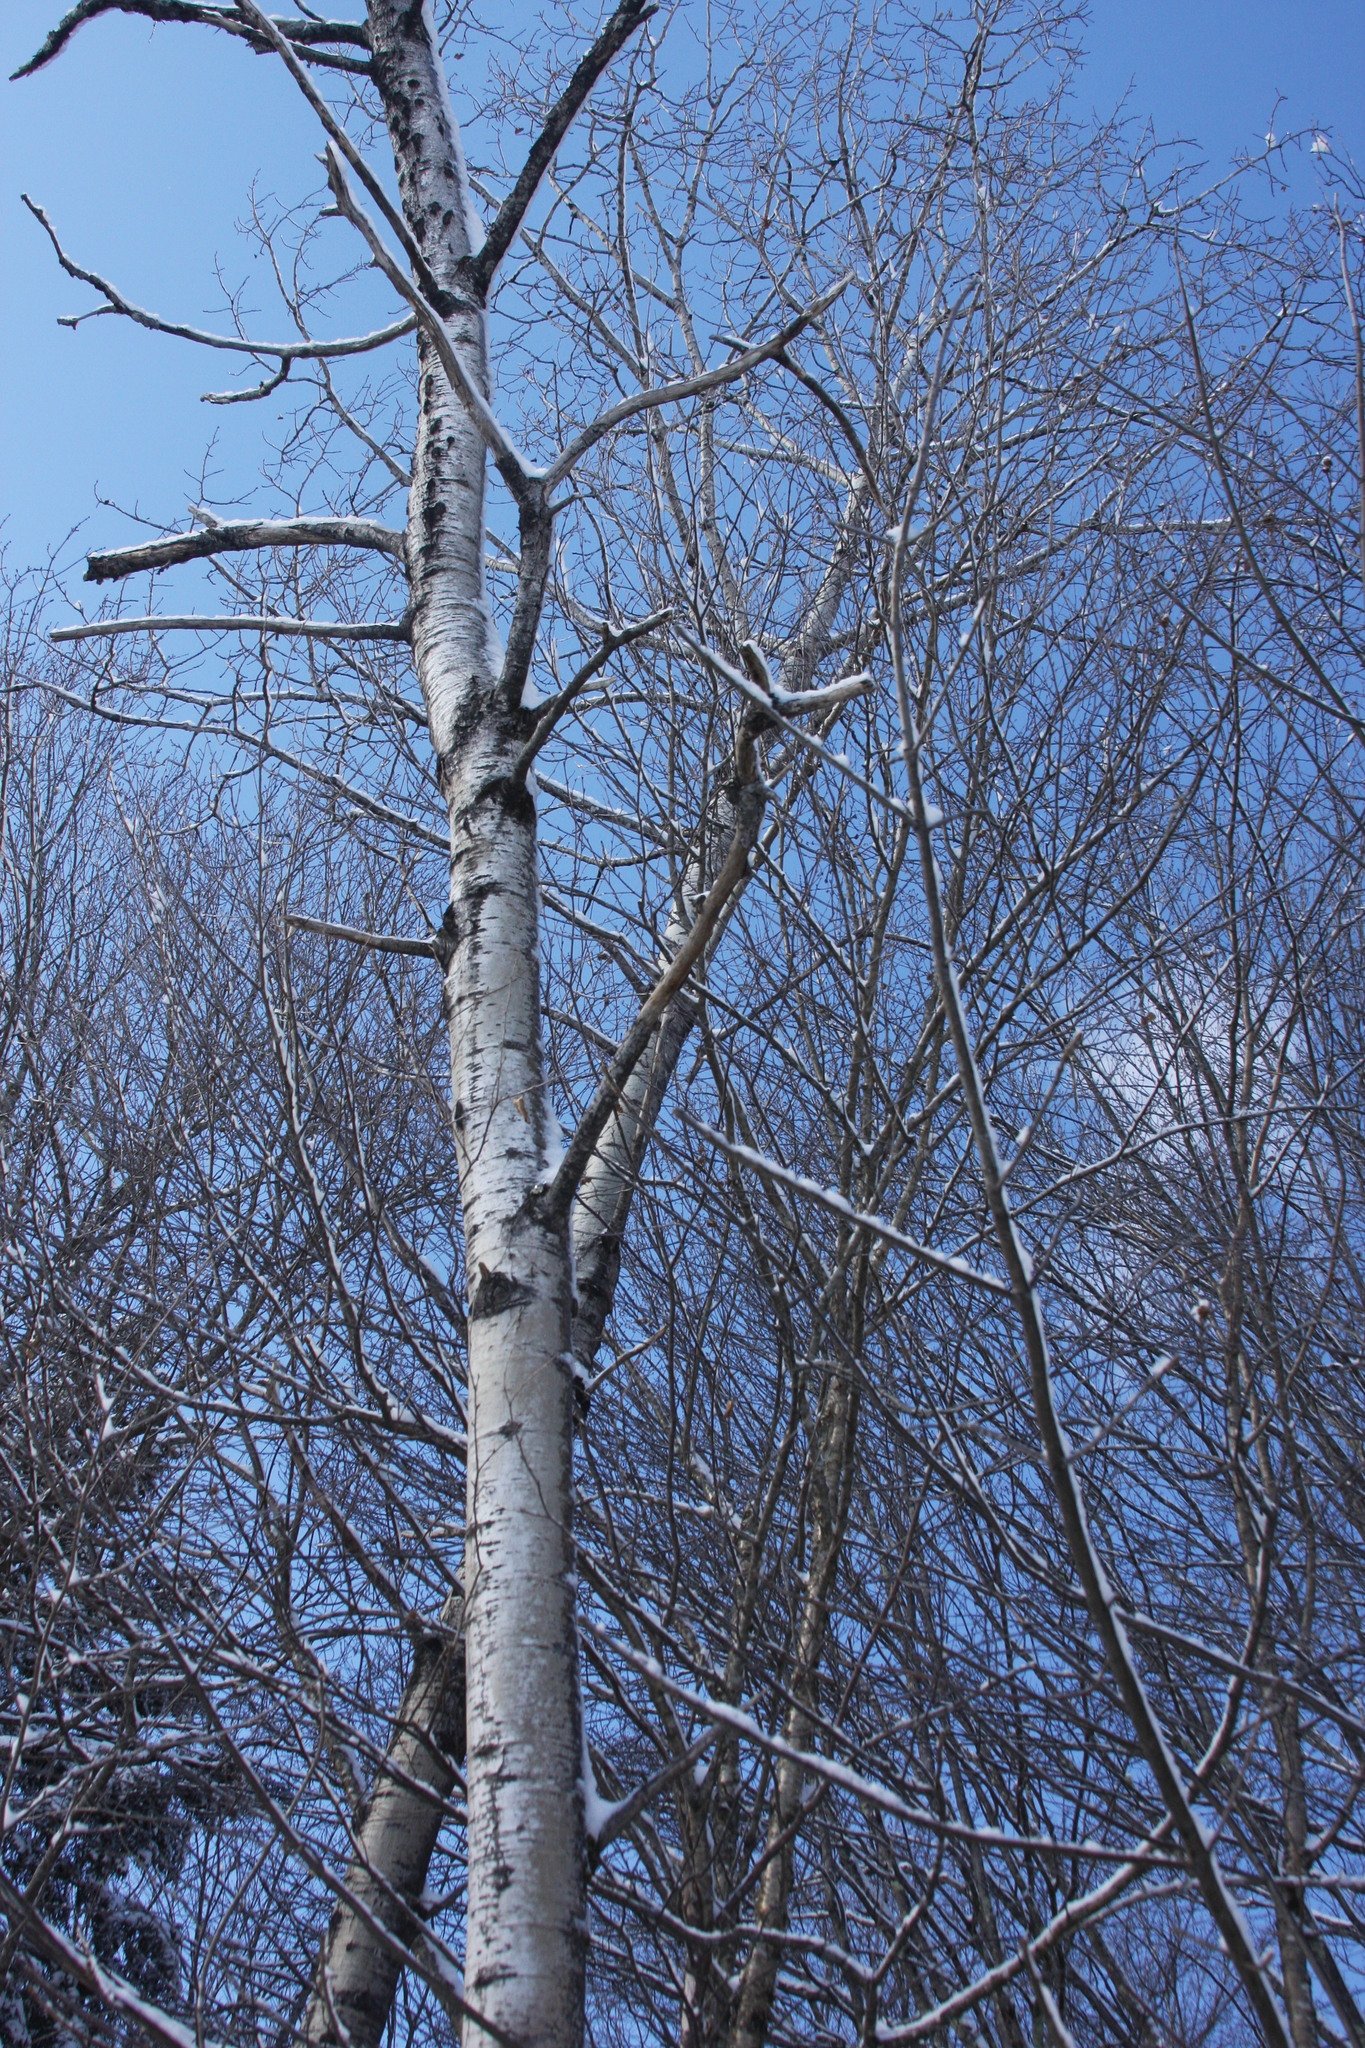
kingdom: Plantae
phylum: Tracheophyta
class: Magnoliopsida
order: Malpighiales
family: Salicaceae
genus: Populus
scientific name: Populus tremuloides
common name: Quaking aspen
